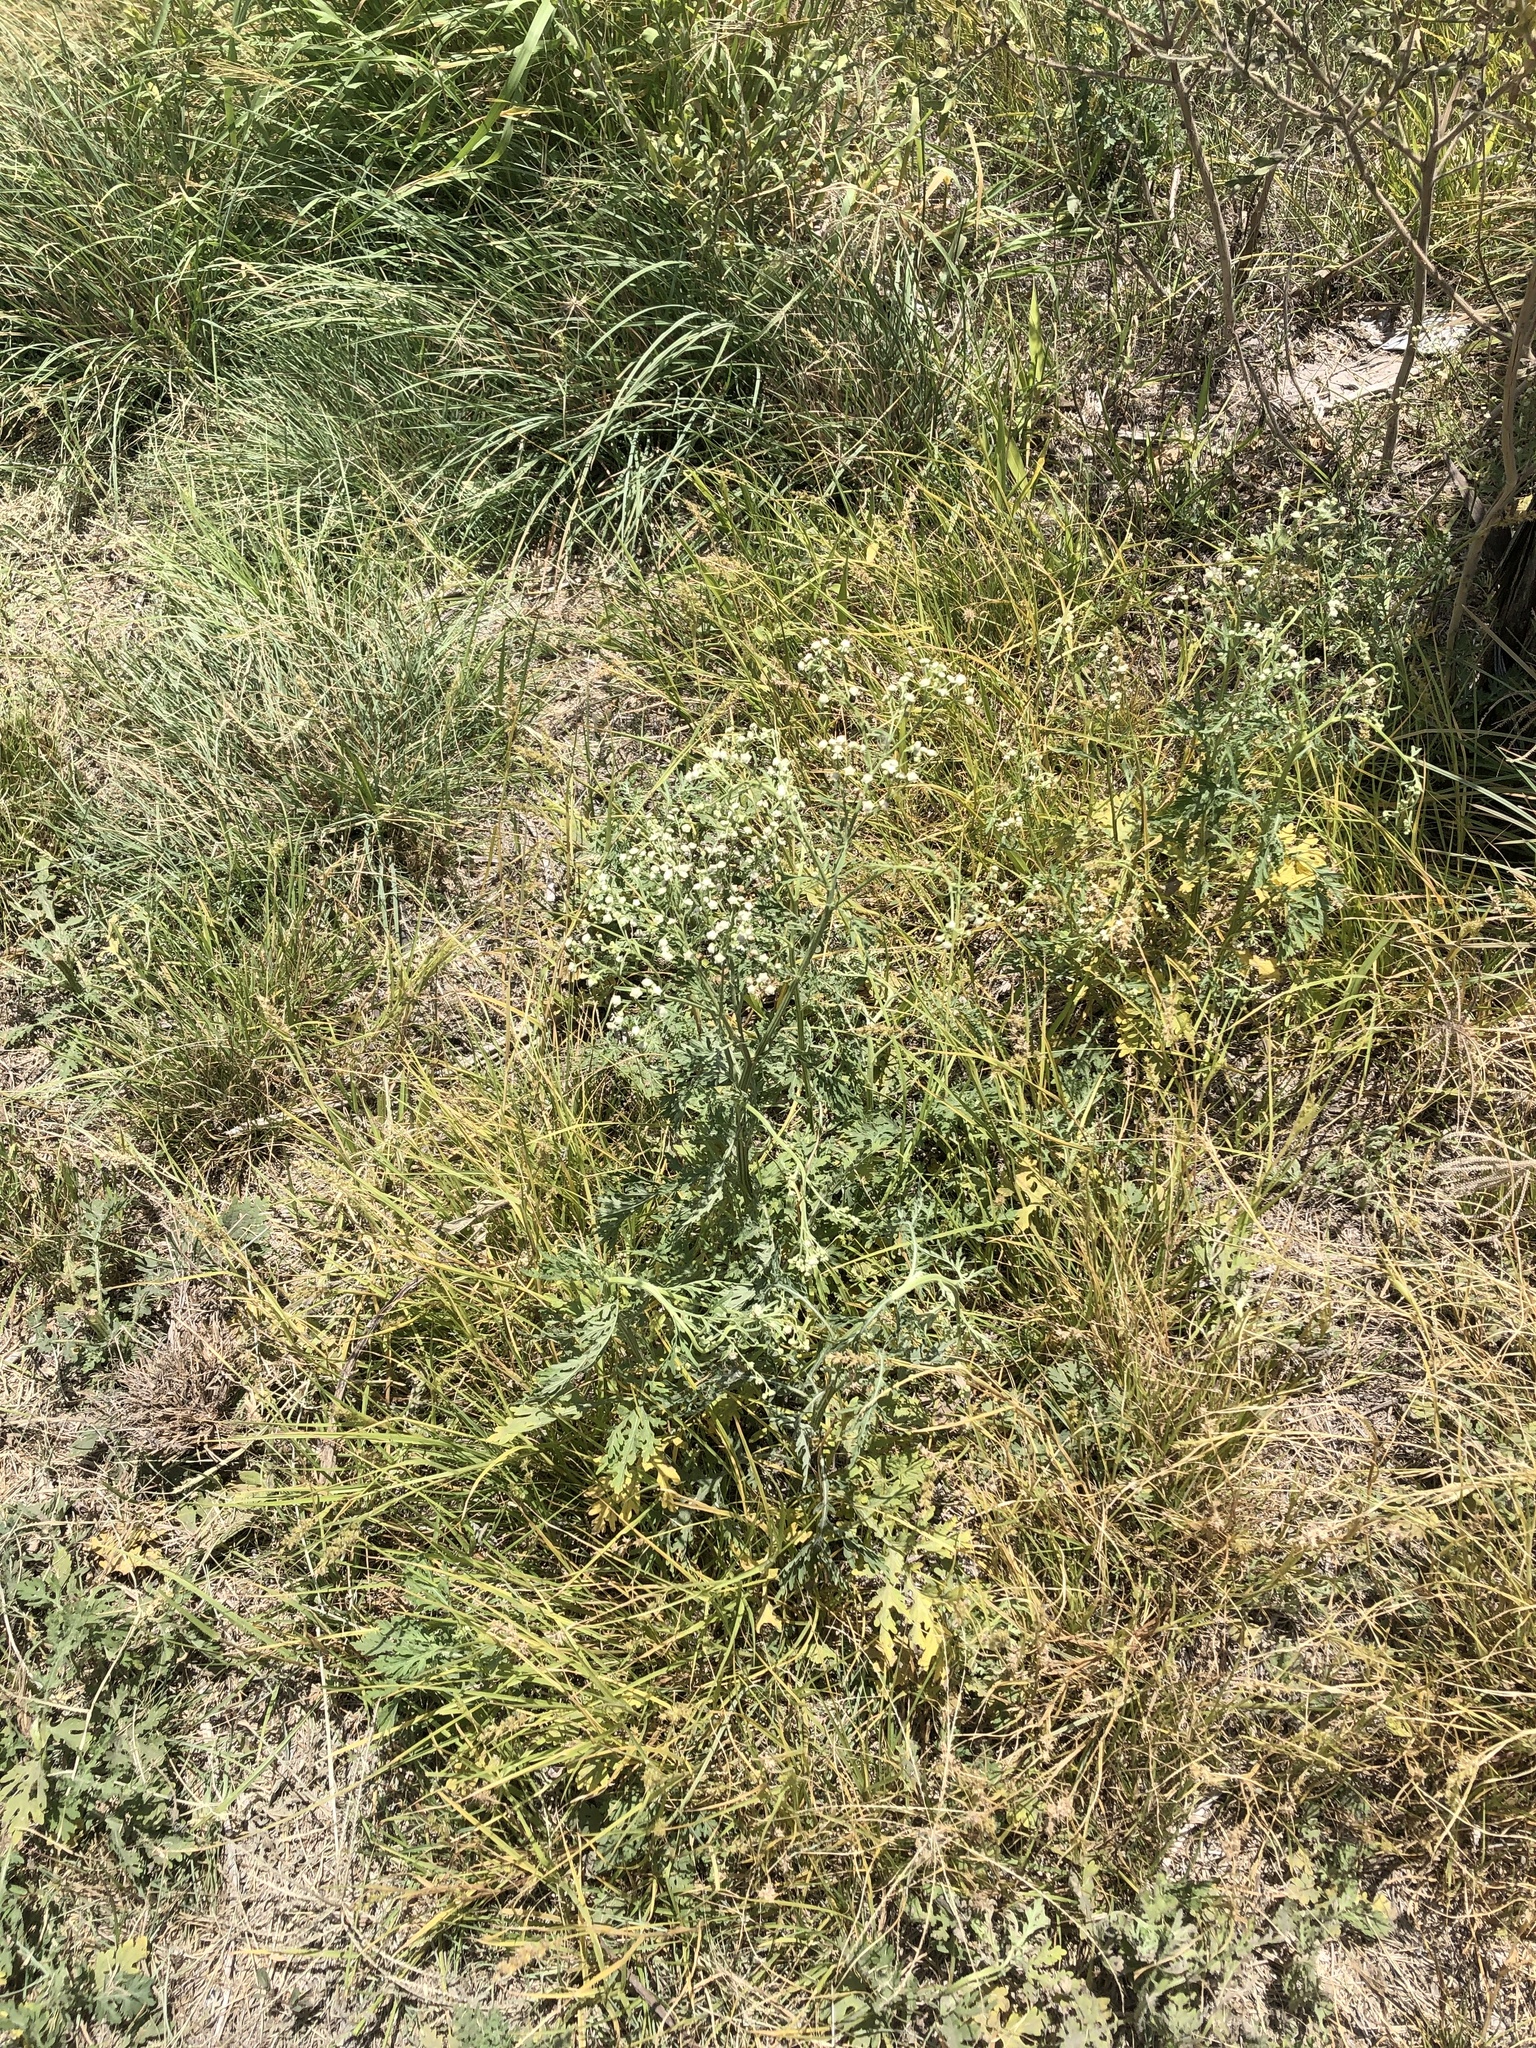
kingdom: Plantae
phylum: Tracheophyta
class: Magnoliopsida
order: Asterales
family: Asteraceae
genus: Parthenium
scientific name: Parthenium hysterophorus
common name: Santa maria feverfew
